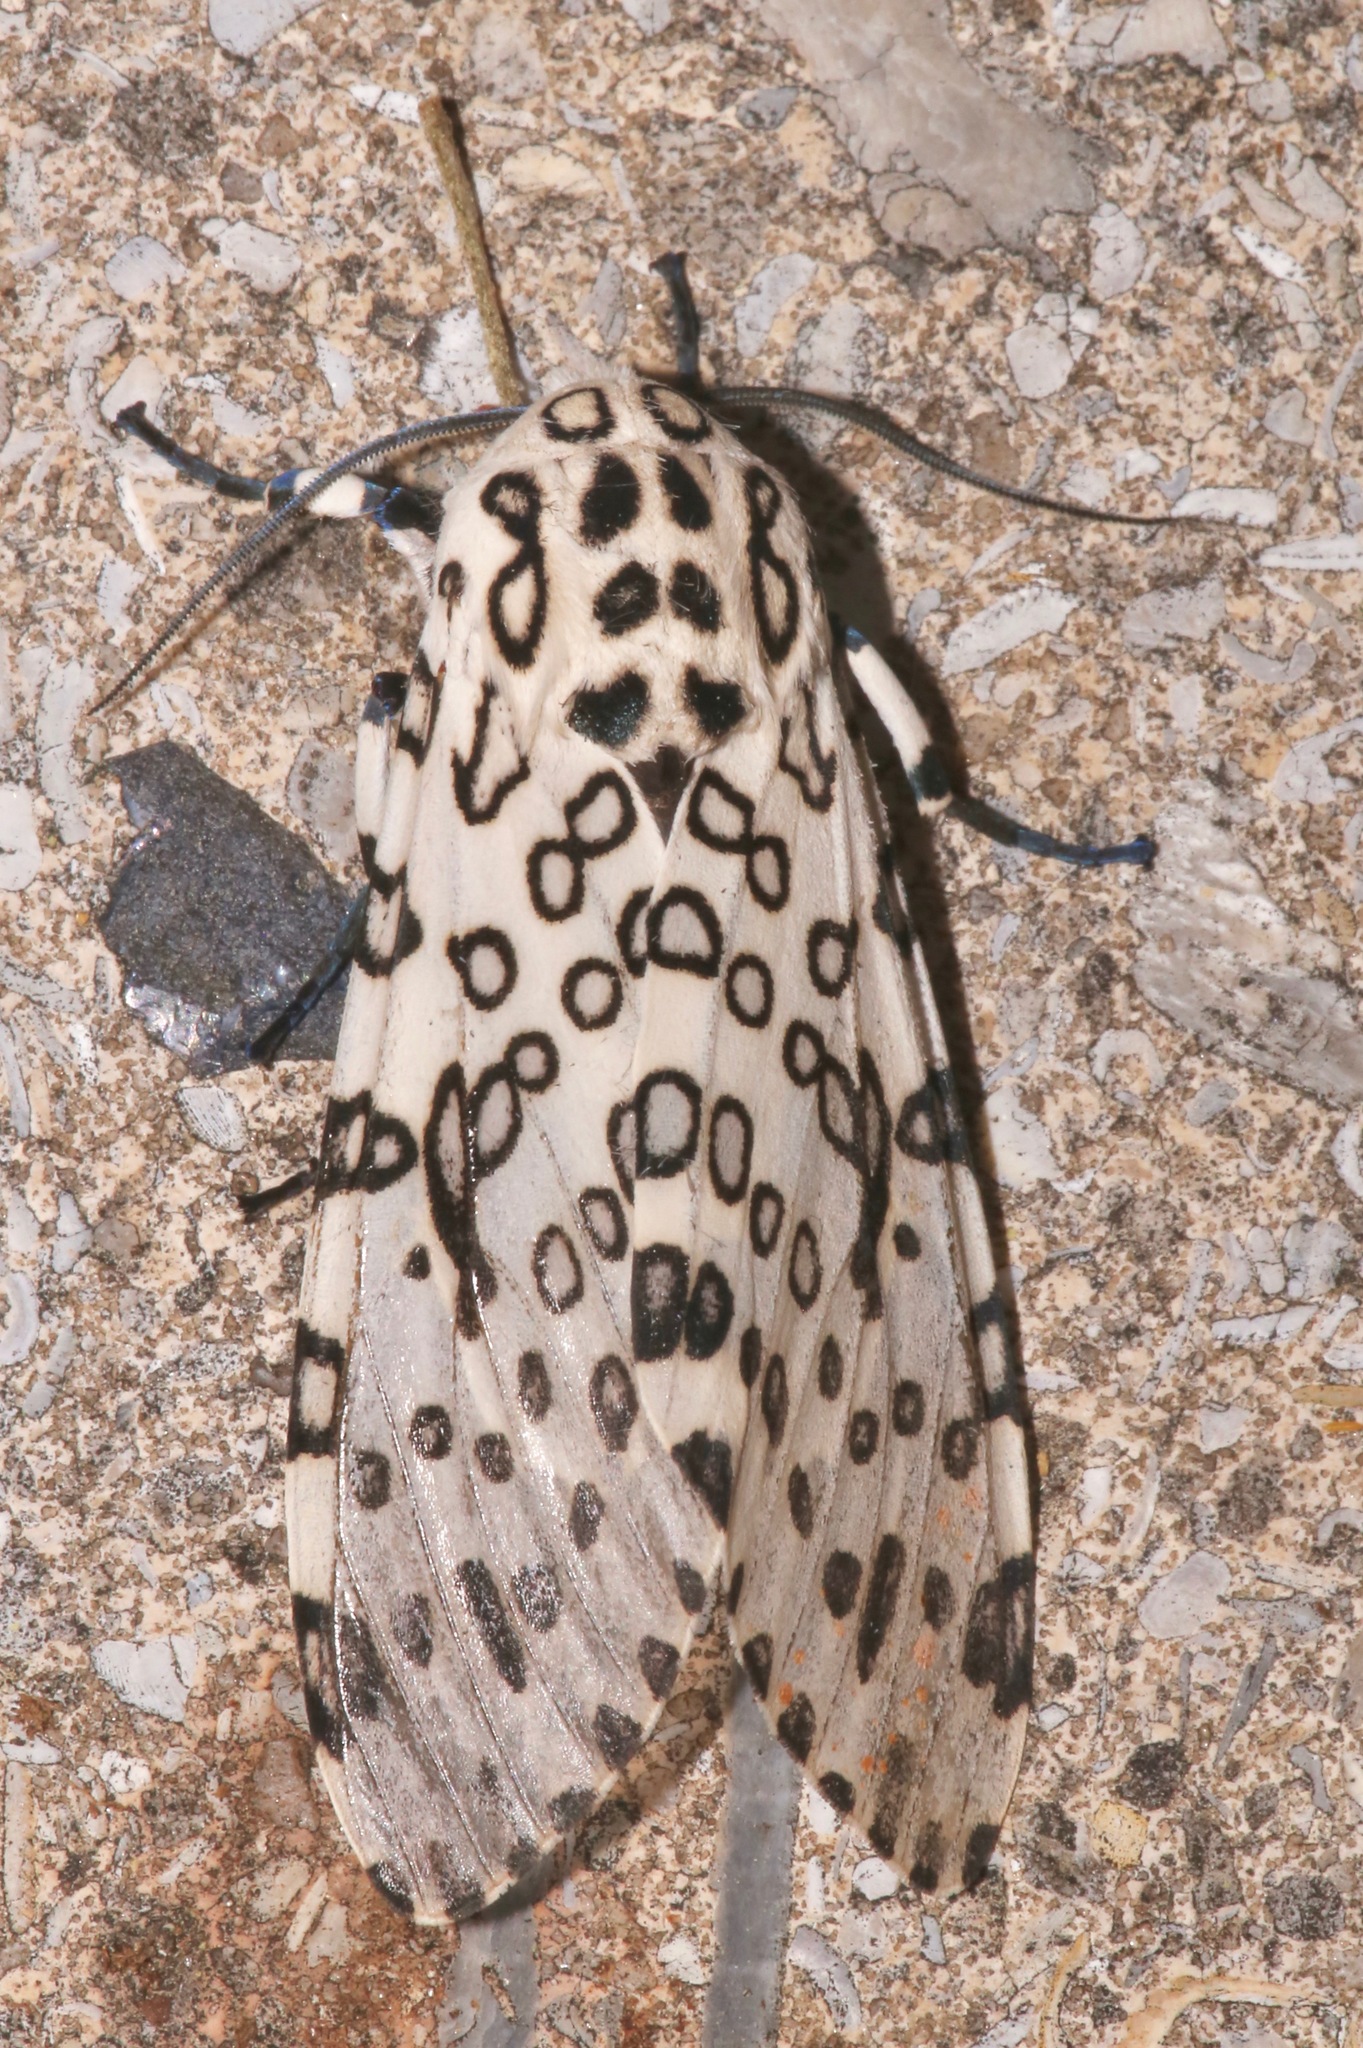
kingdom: Animalia
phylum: Arthropoda
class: Insecta
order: Lepidoptera
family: Erebidae
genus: Hypercompe
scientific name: Hypercompe scribonia
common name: Giant leopard moth
